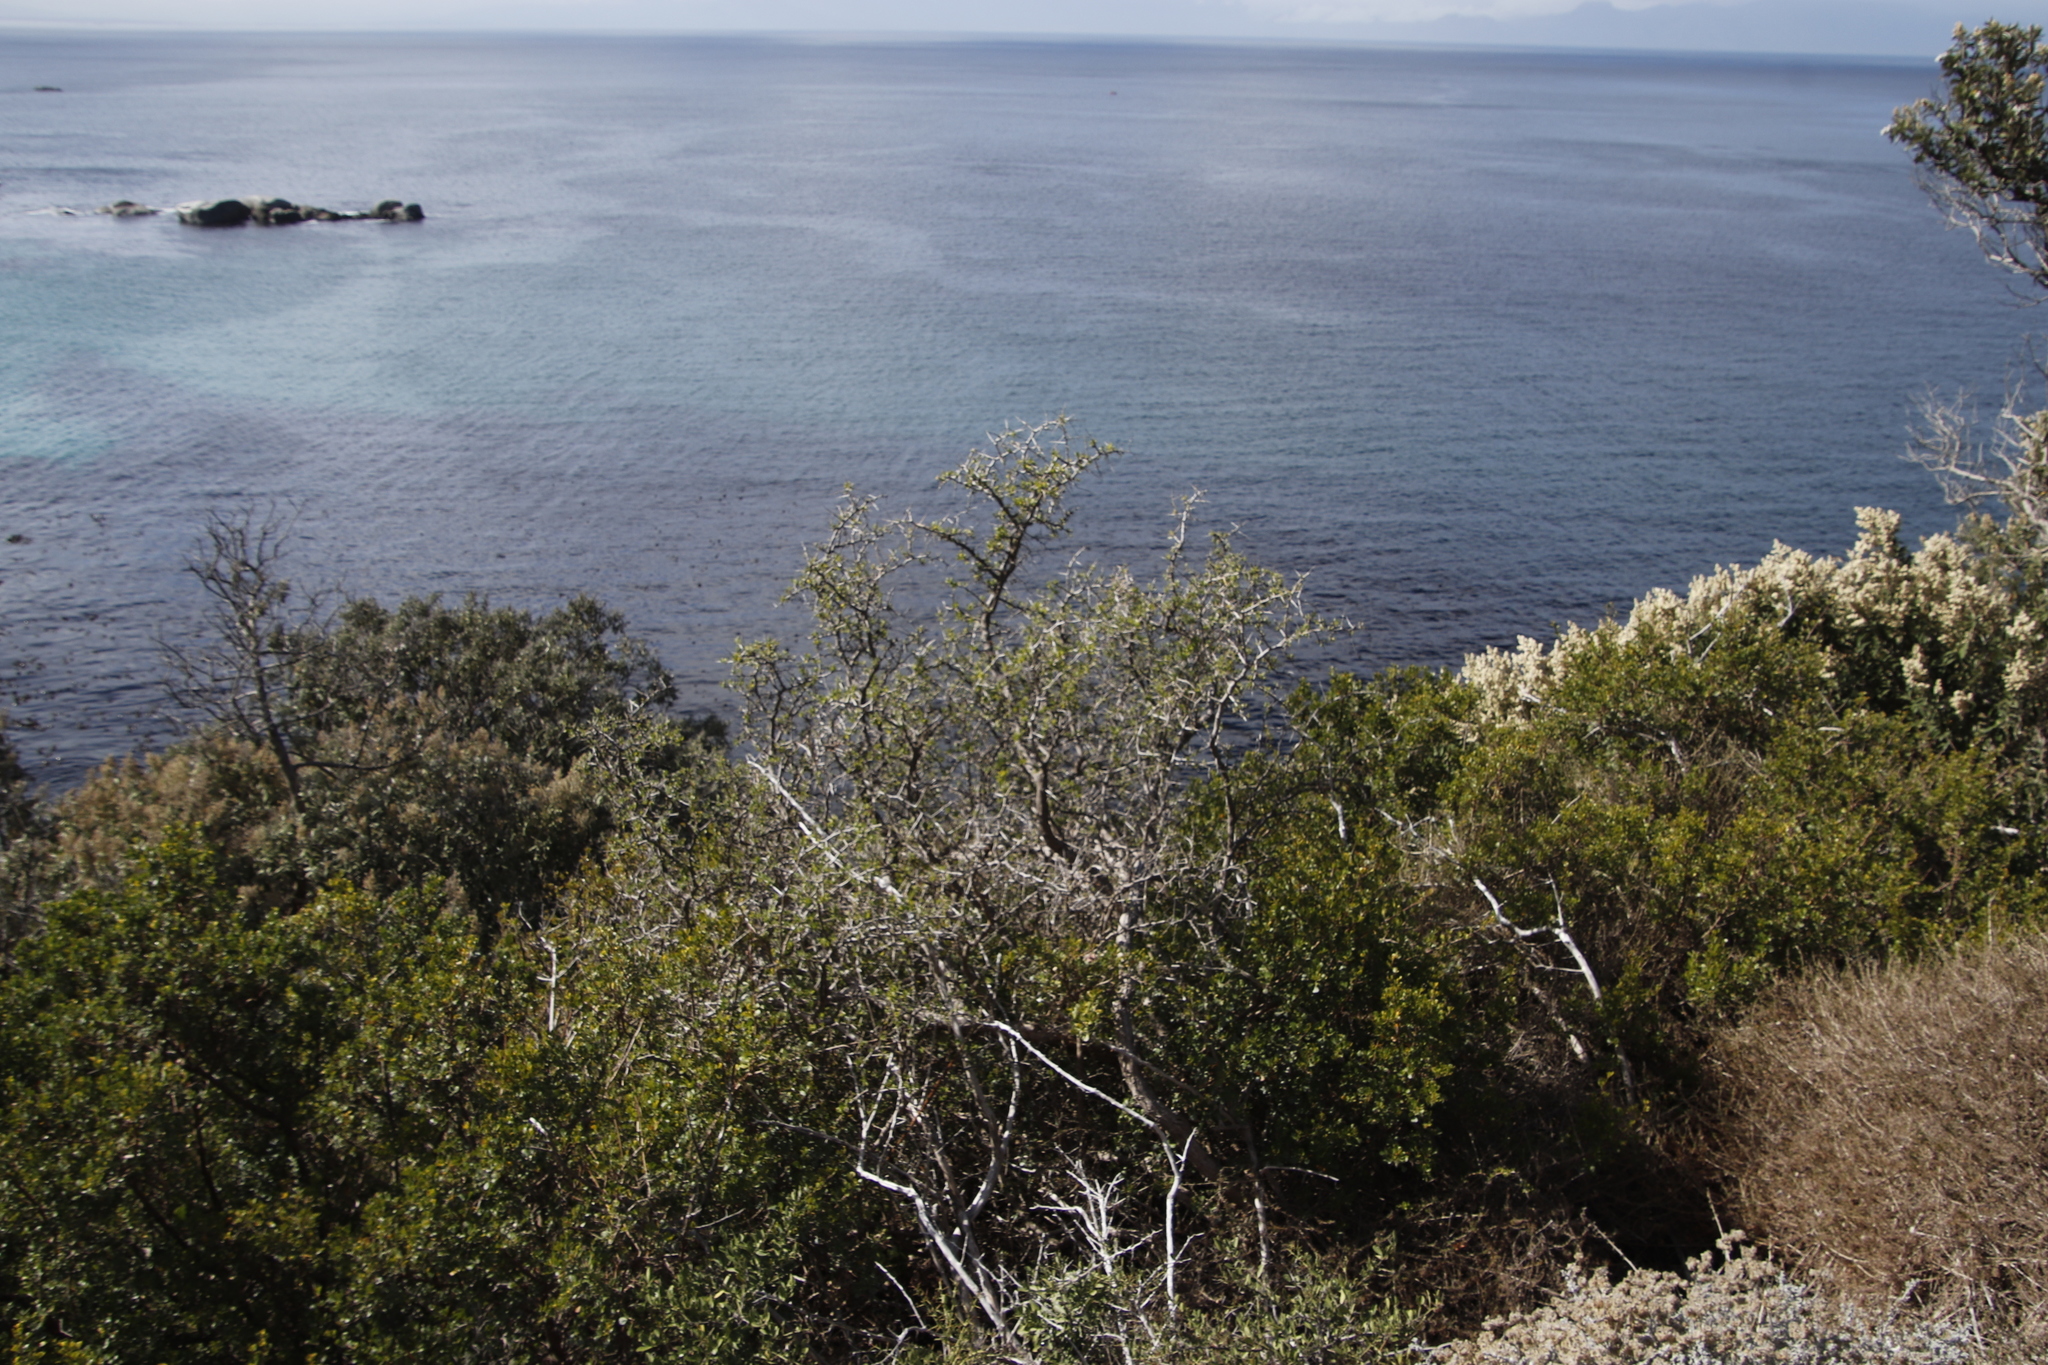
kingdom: Plantae
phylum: Tracheophyta
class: Magnoliopsida
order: Solanales
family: Solanaceae
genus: Lycium
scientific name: Lycium ferocissimum
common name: African boxthorn
